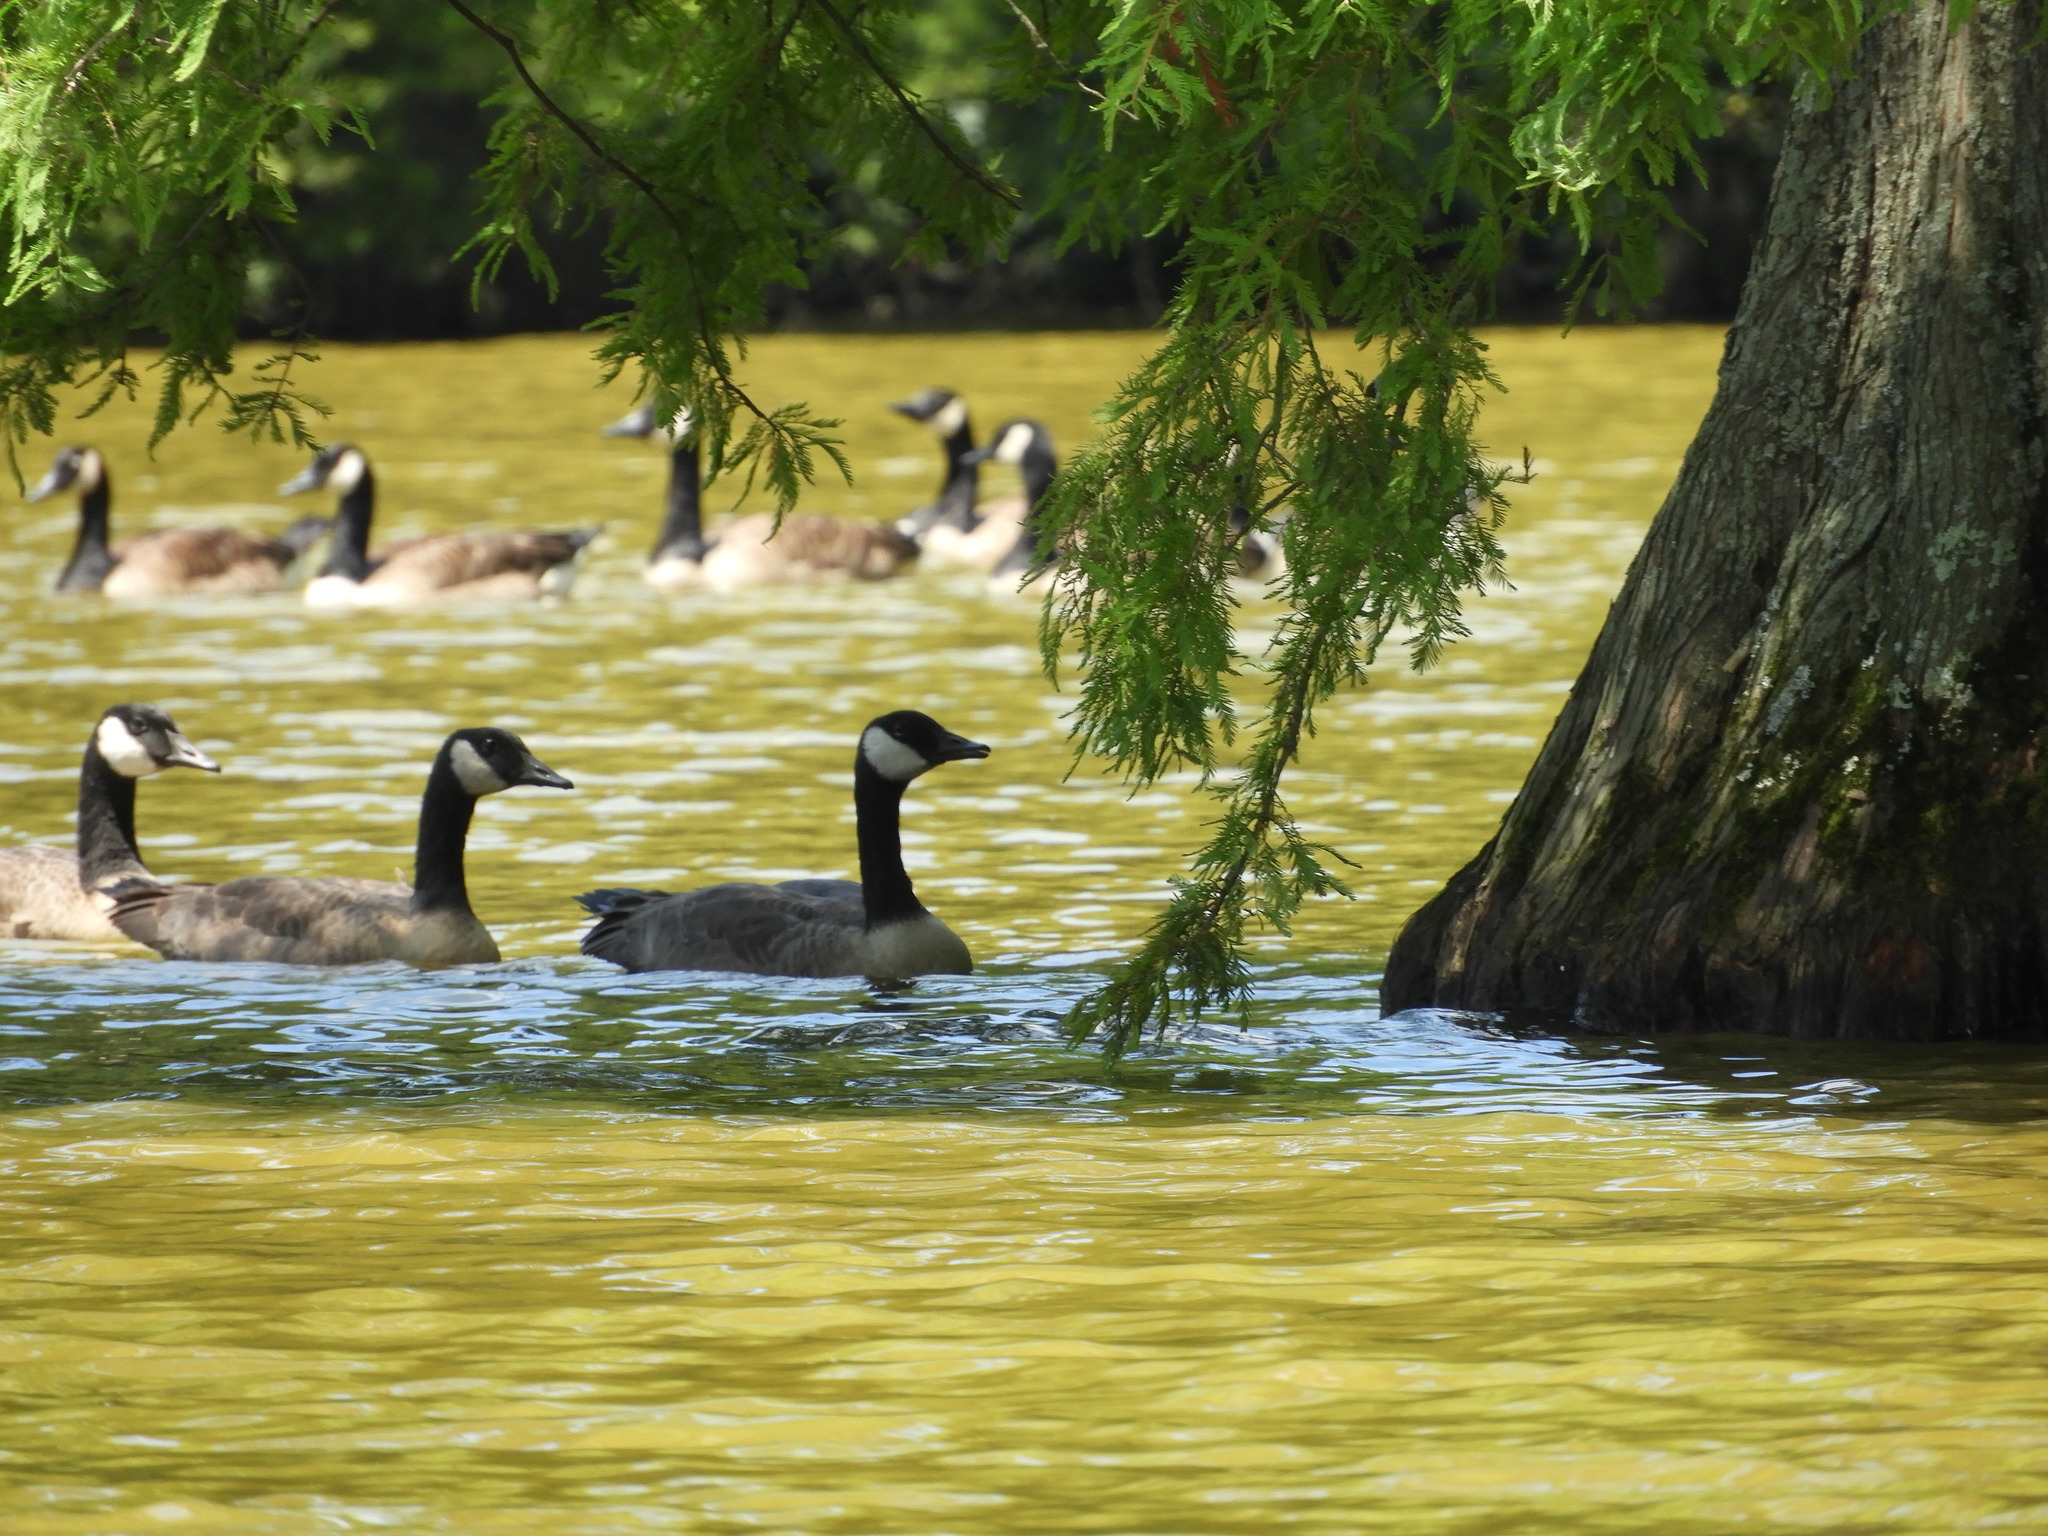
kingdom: Animalia
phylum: Chordata
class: Aves
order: Anseriformes
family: Anatidae
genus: Branta
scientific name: Branta canadensis
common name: Canada goose
